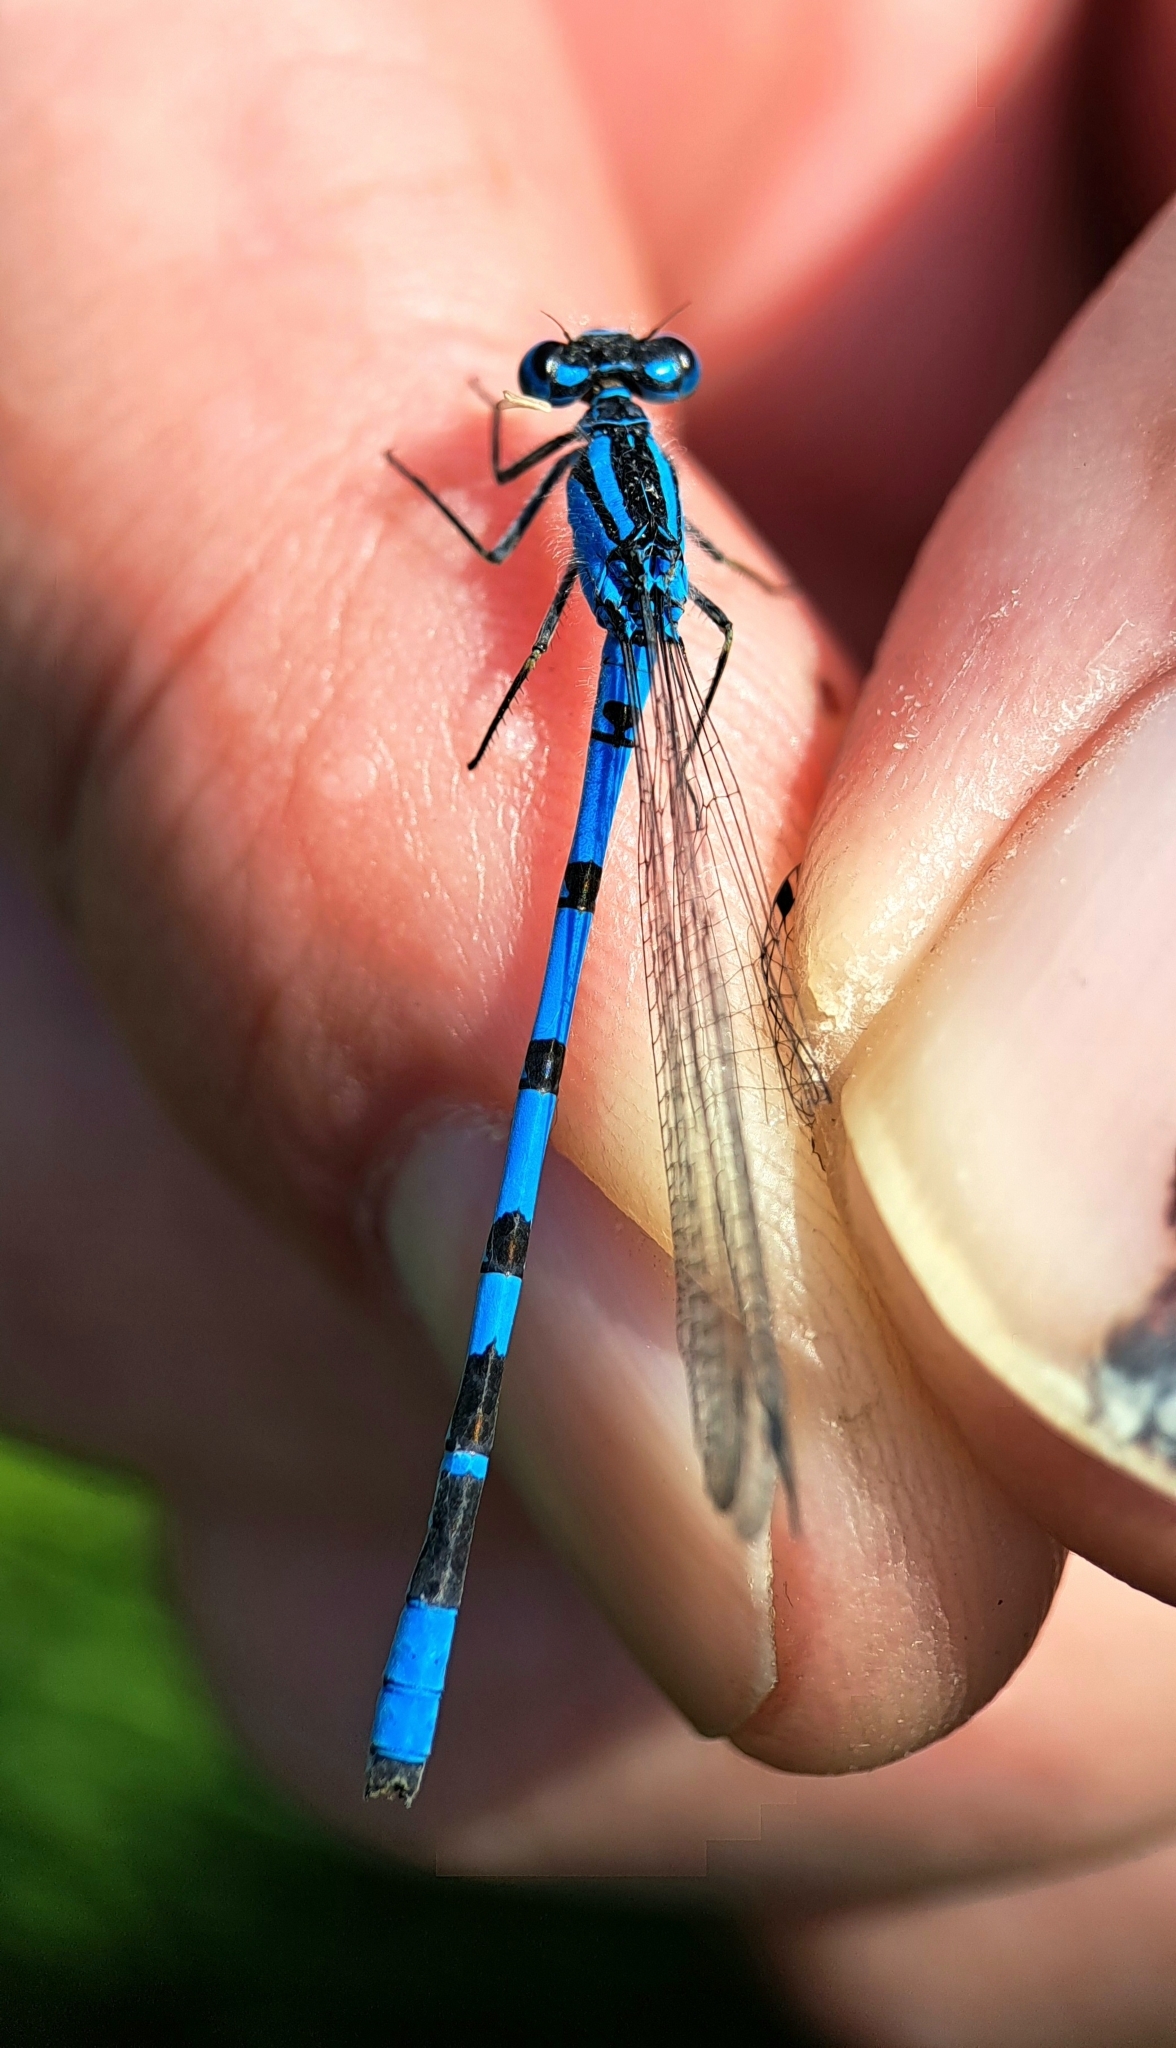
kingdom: Animalia
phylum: Arthropoda
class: Insecta
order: Odonata
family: Coenagrionidae
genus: Enallagma
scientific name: Enallagma cyathigerum
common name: Common blue damselfly
